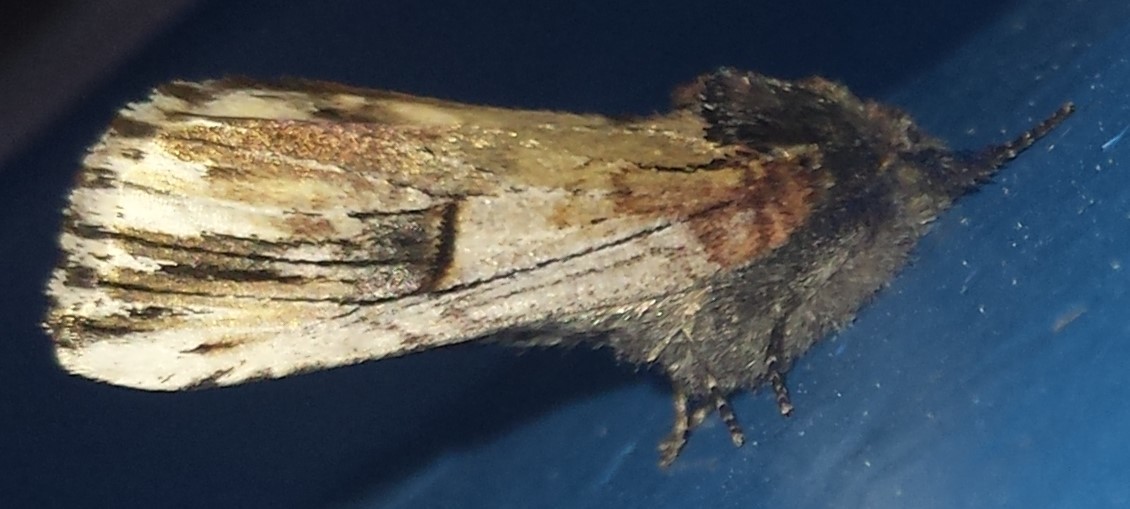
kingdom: Animalia
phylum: Arthropoda
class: Insecta
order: Lepidoptera
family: Notodontidae
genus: Schizura
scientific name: Schizura badia
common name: Chestnut schizura
